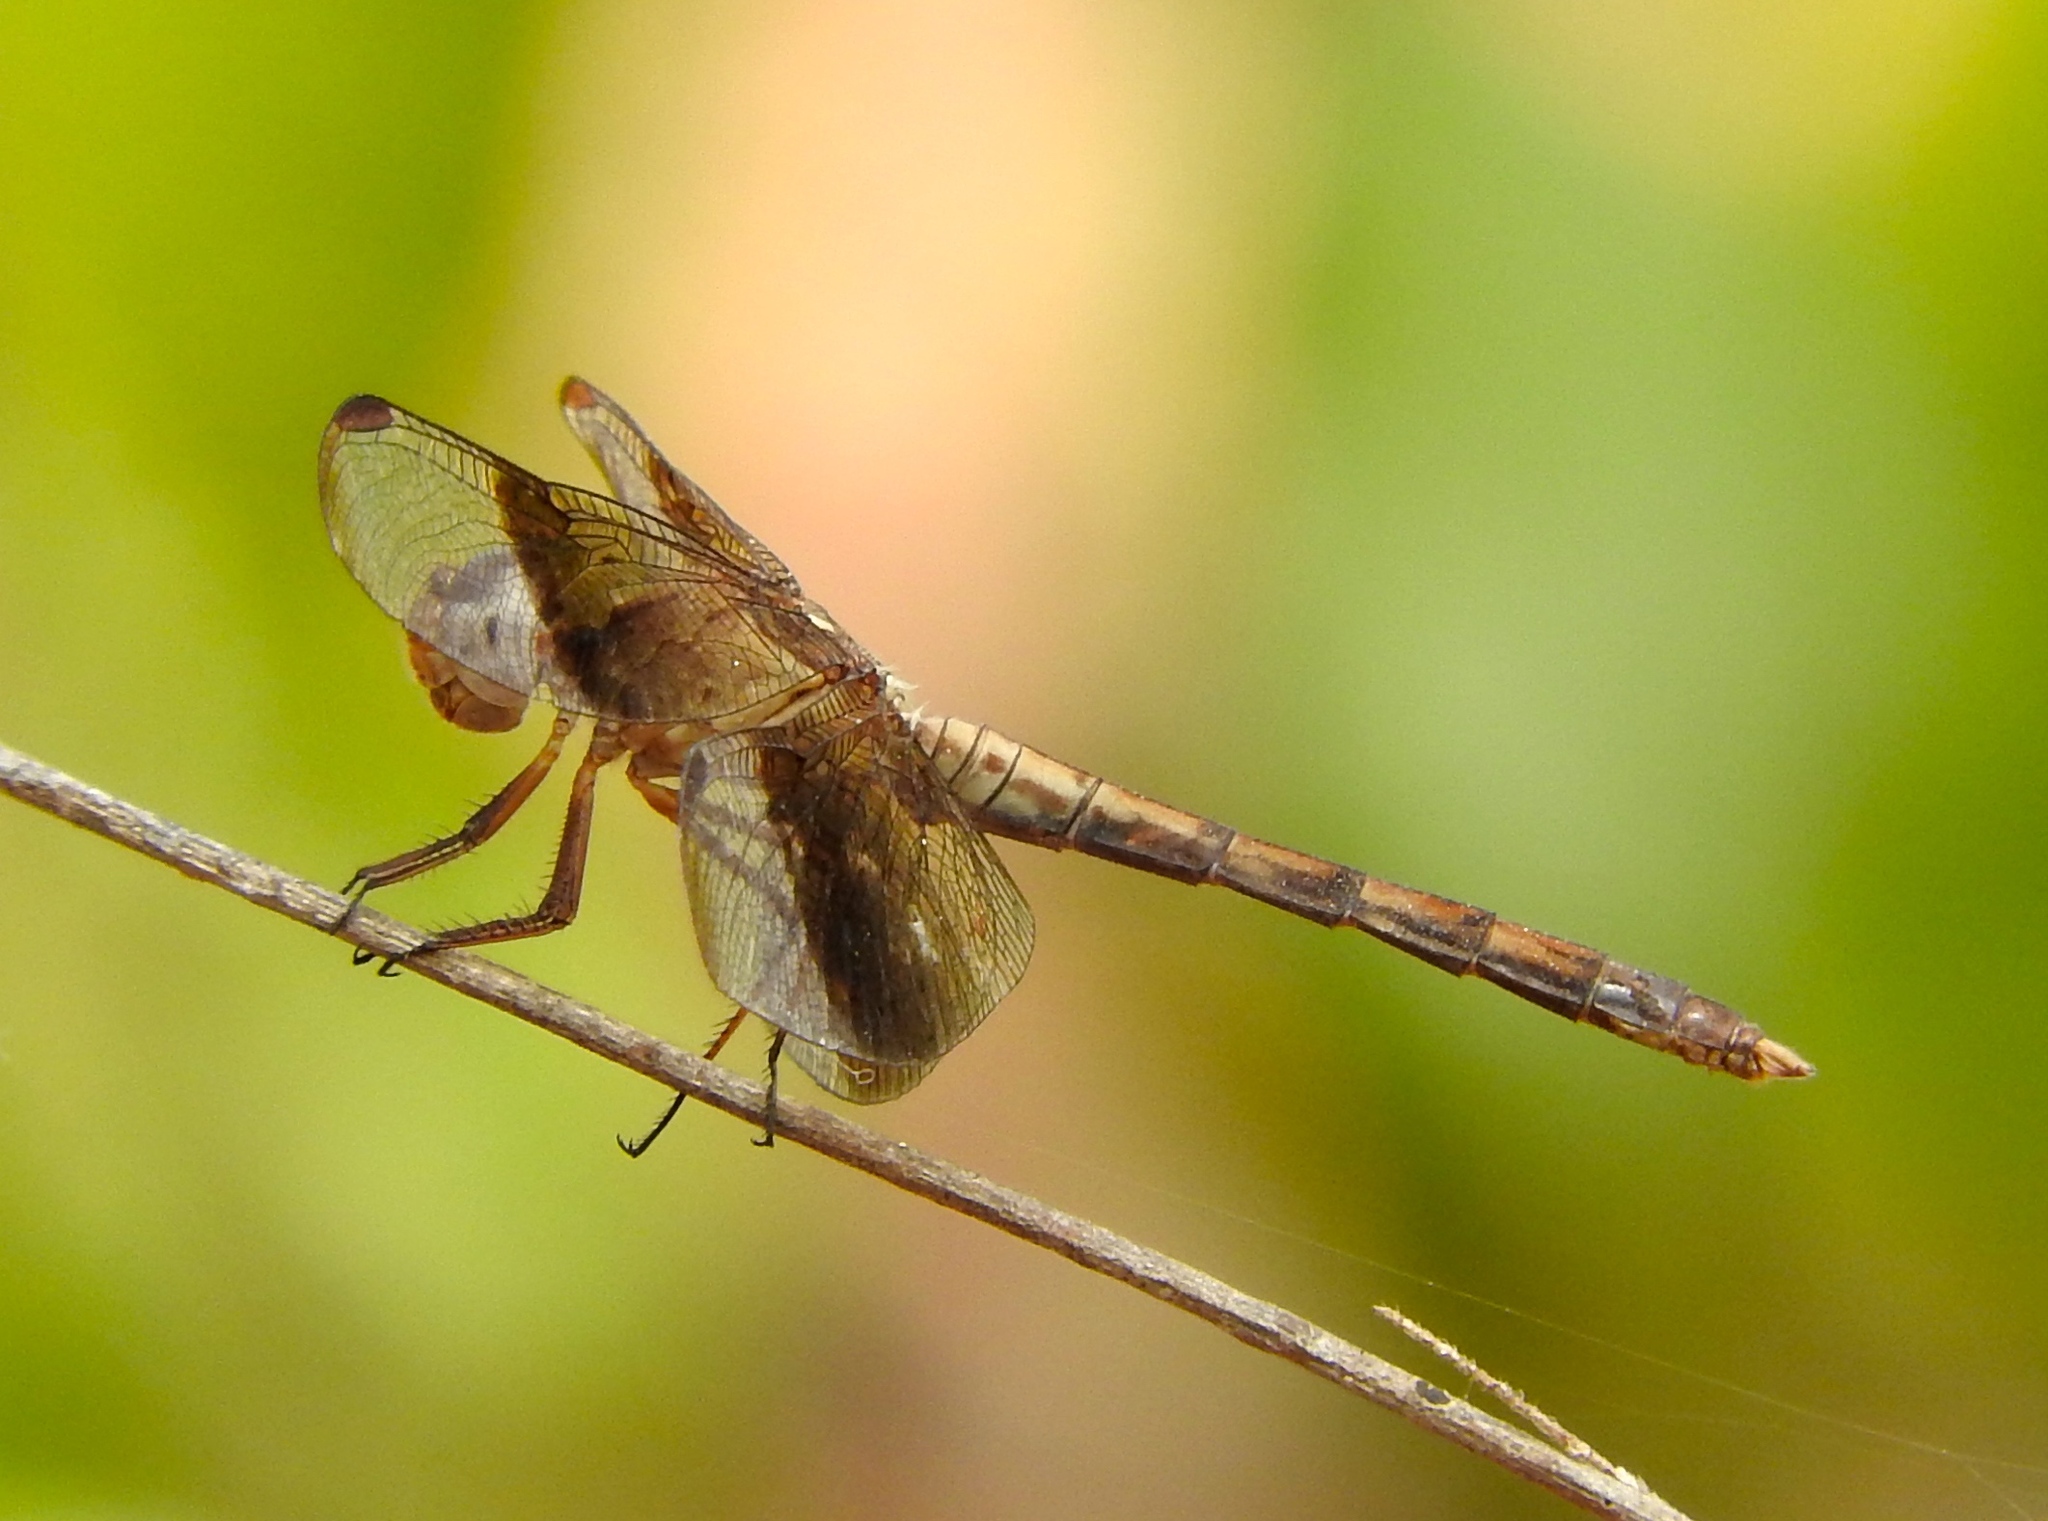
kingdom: Animalia
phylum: Arthropoda
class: Insecta
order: Odonata
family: Libellulidae
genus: Erythrodiplax
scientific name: Erythrodiplax
